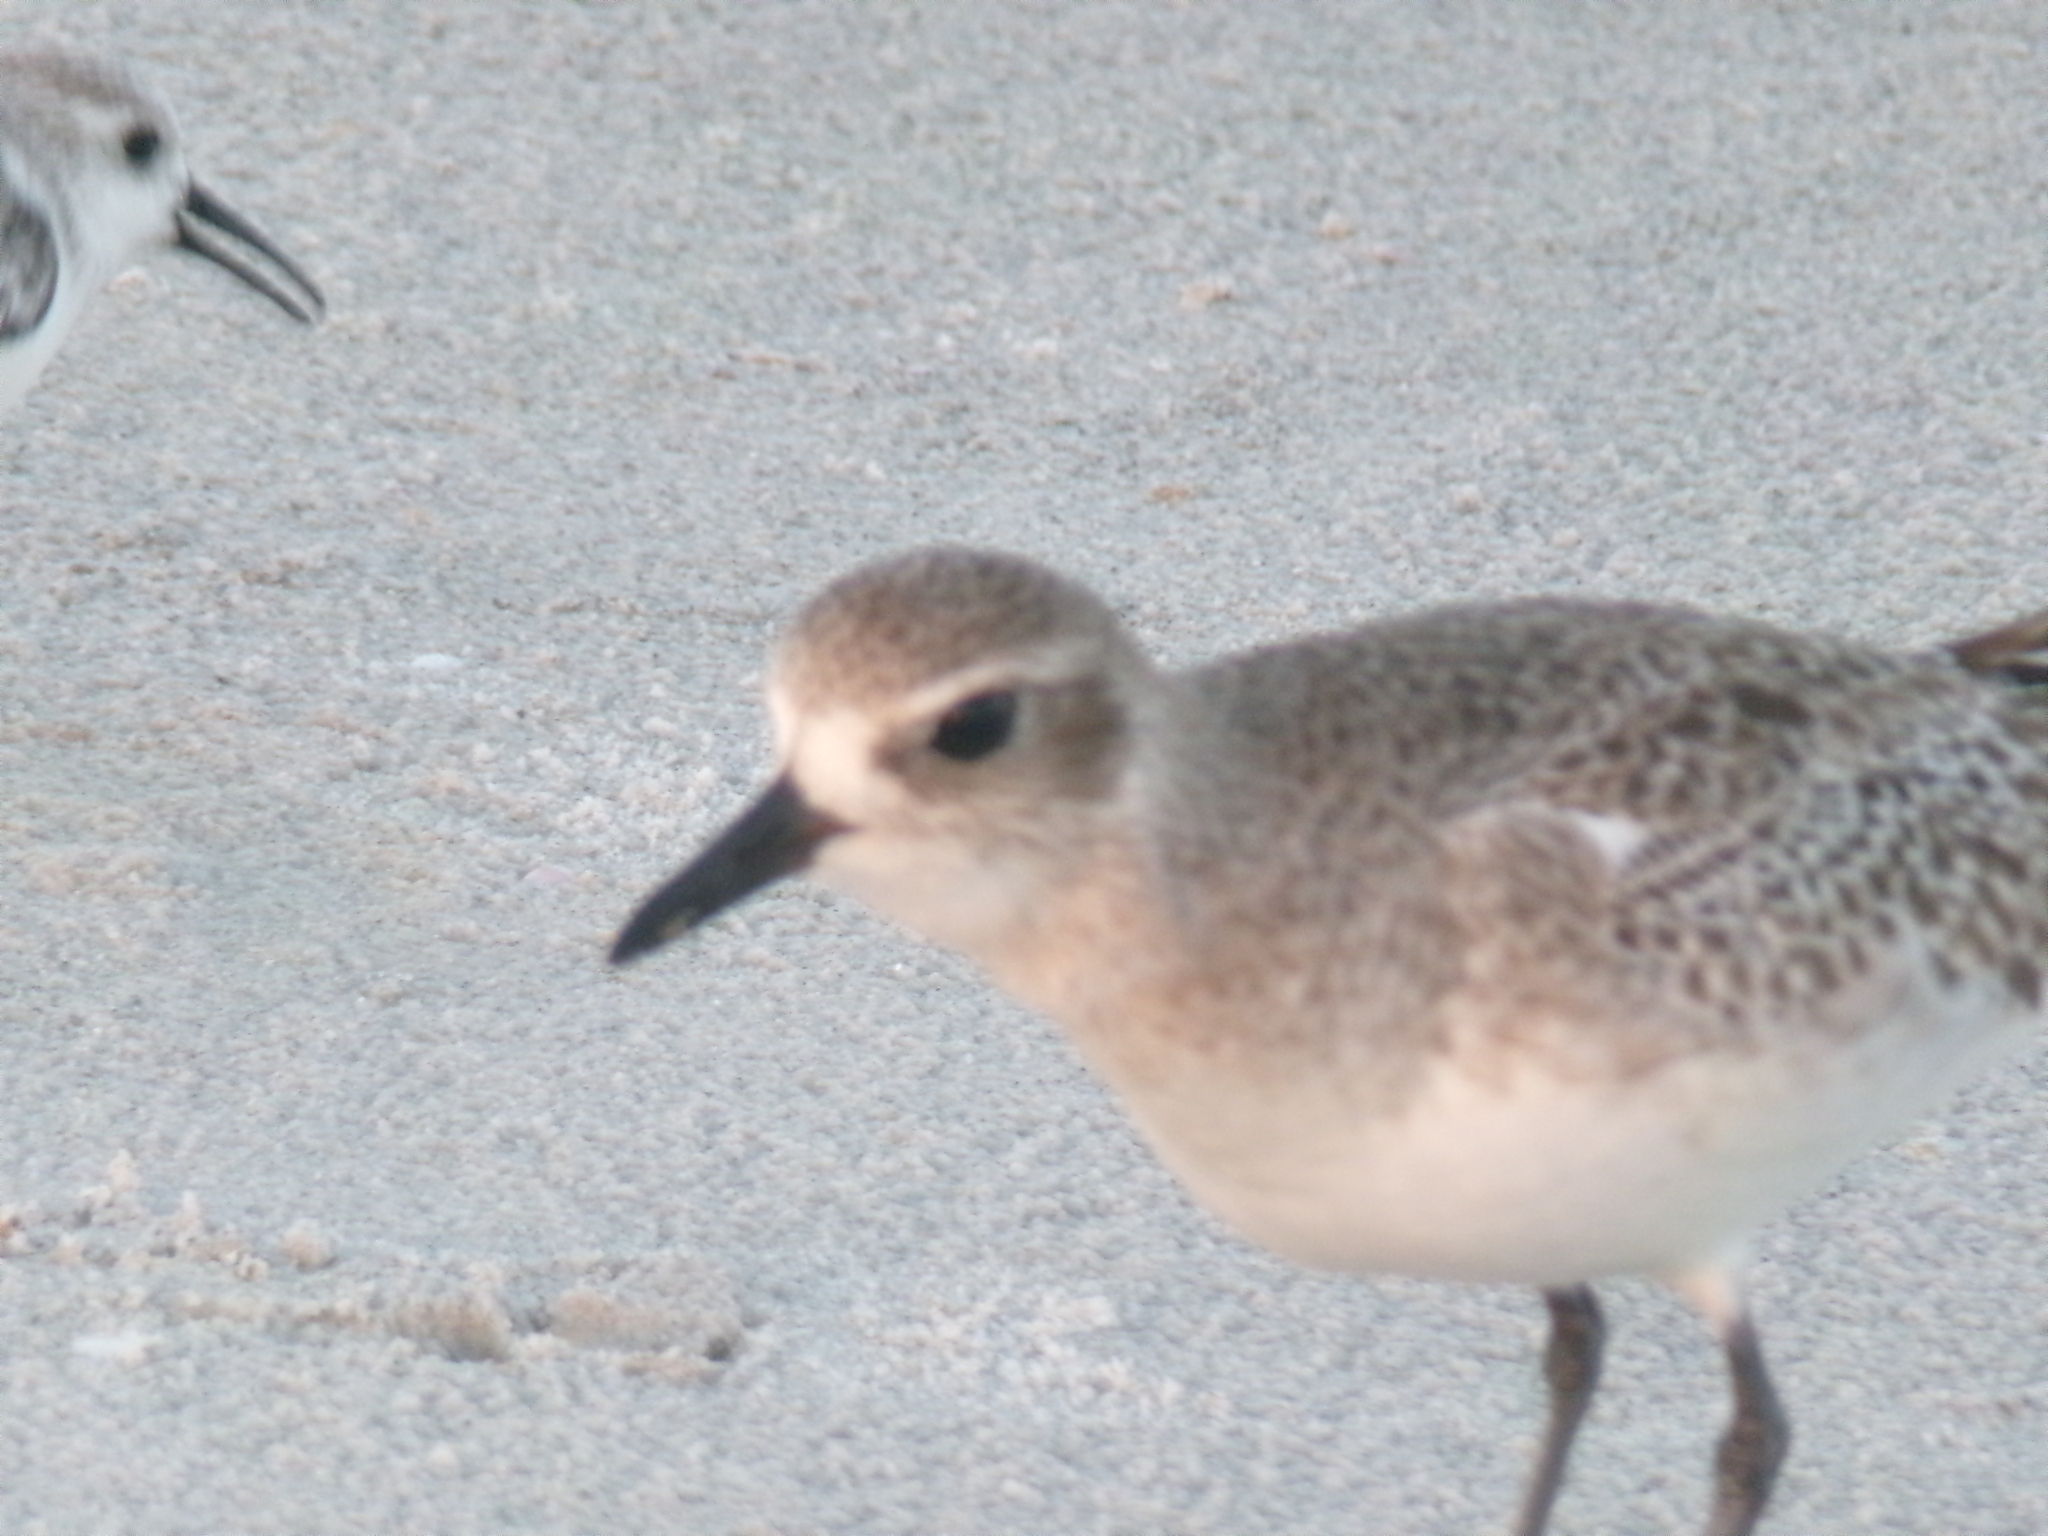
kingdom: Animalia
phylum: Chordata
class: Aves
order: Charadriiformes
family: Charadriidae
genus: Pluvialis
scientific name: Pluvialis squatarola
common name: Grey plover
